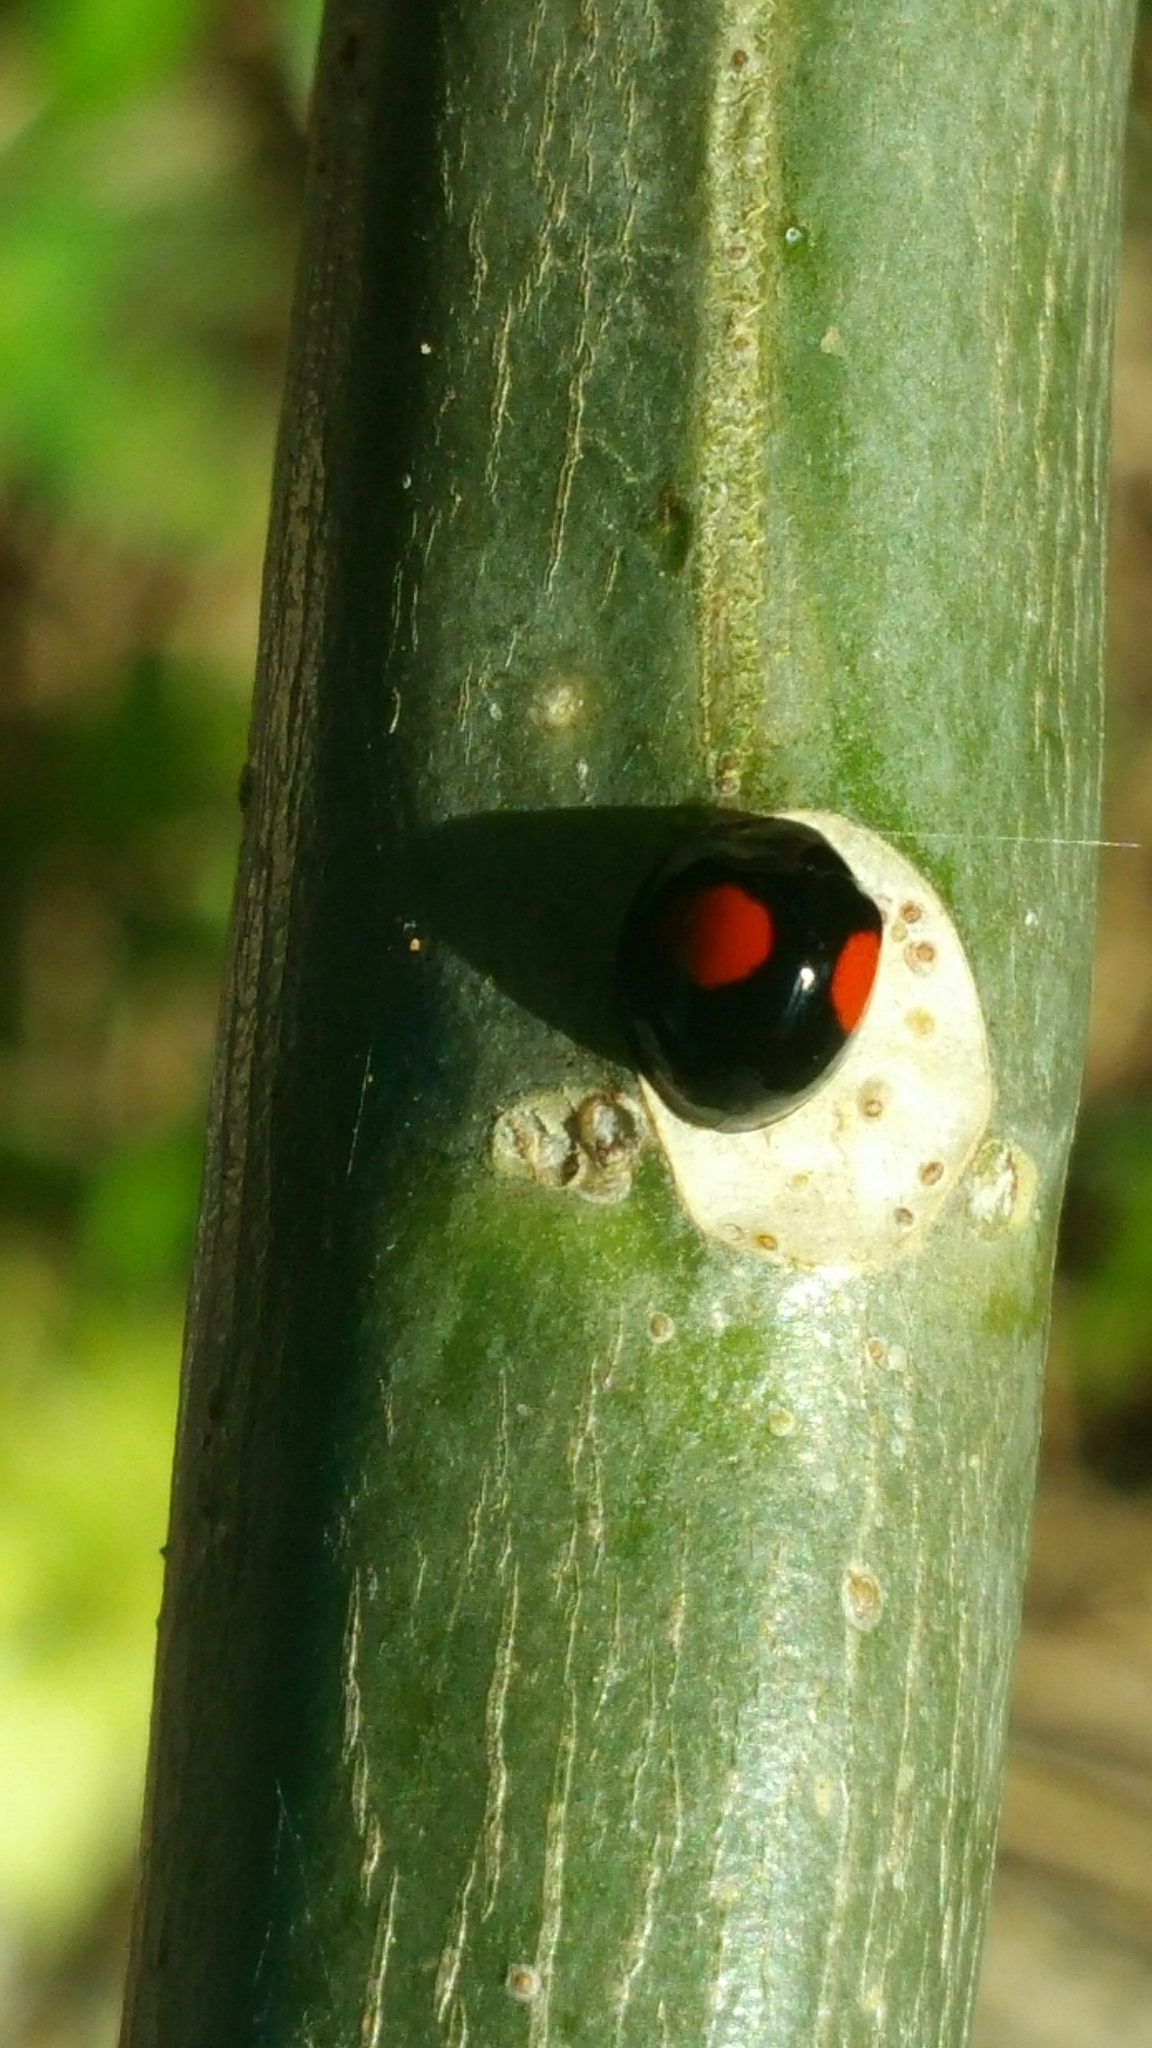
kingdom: Animalia
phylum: Arthropoda
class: Insecta
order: Coleoptera
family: Coccinellidae
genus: Chilocorus
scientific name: Chilocorus cacti
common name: Cactus lady beetle
